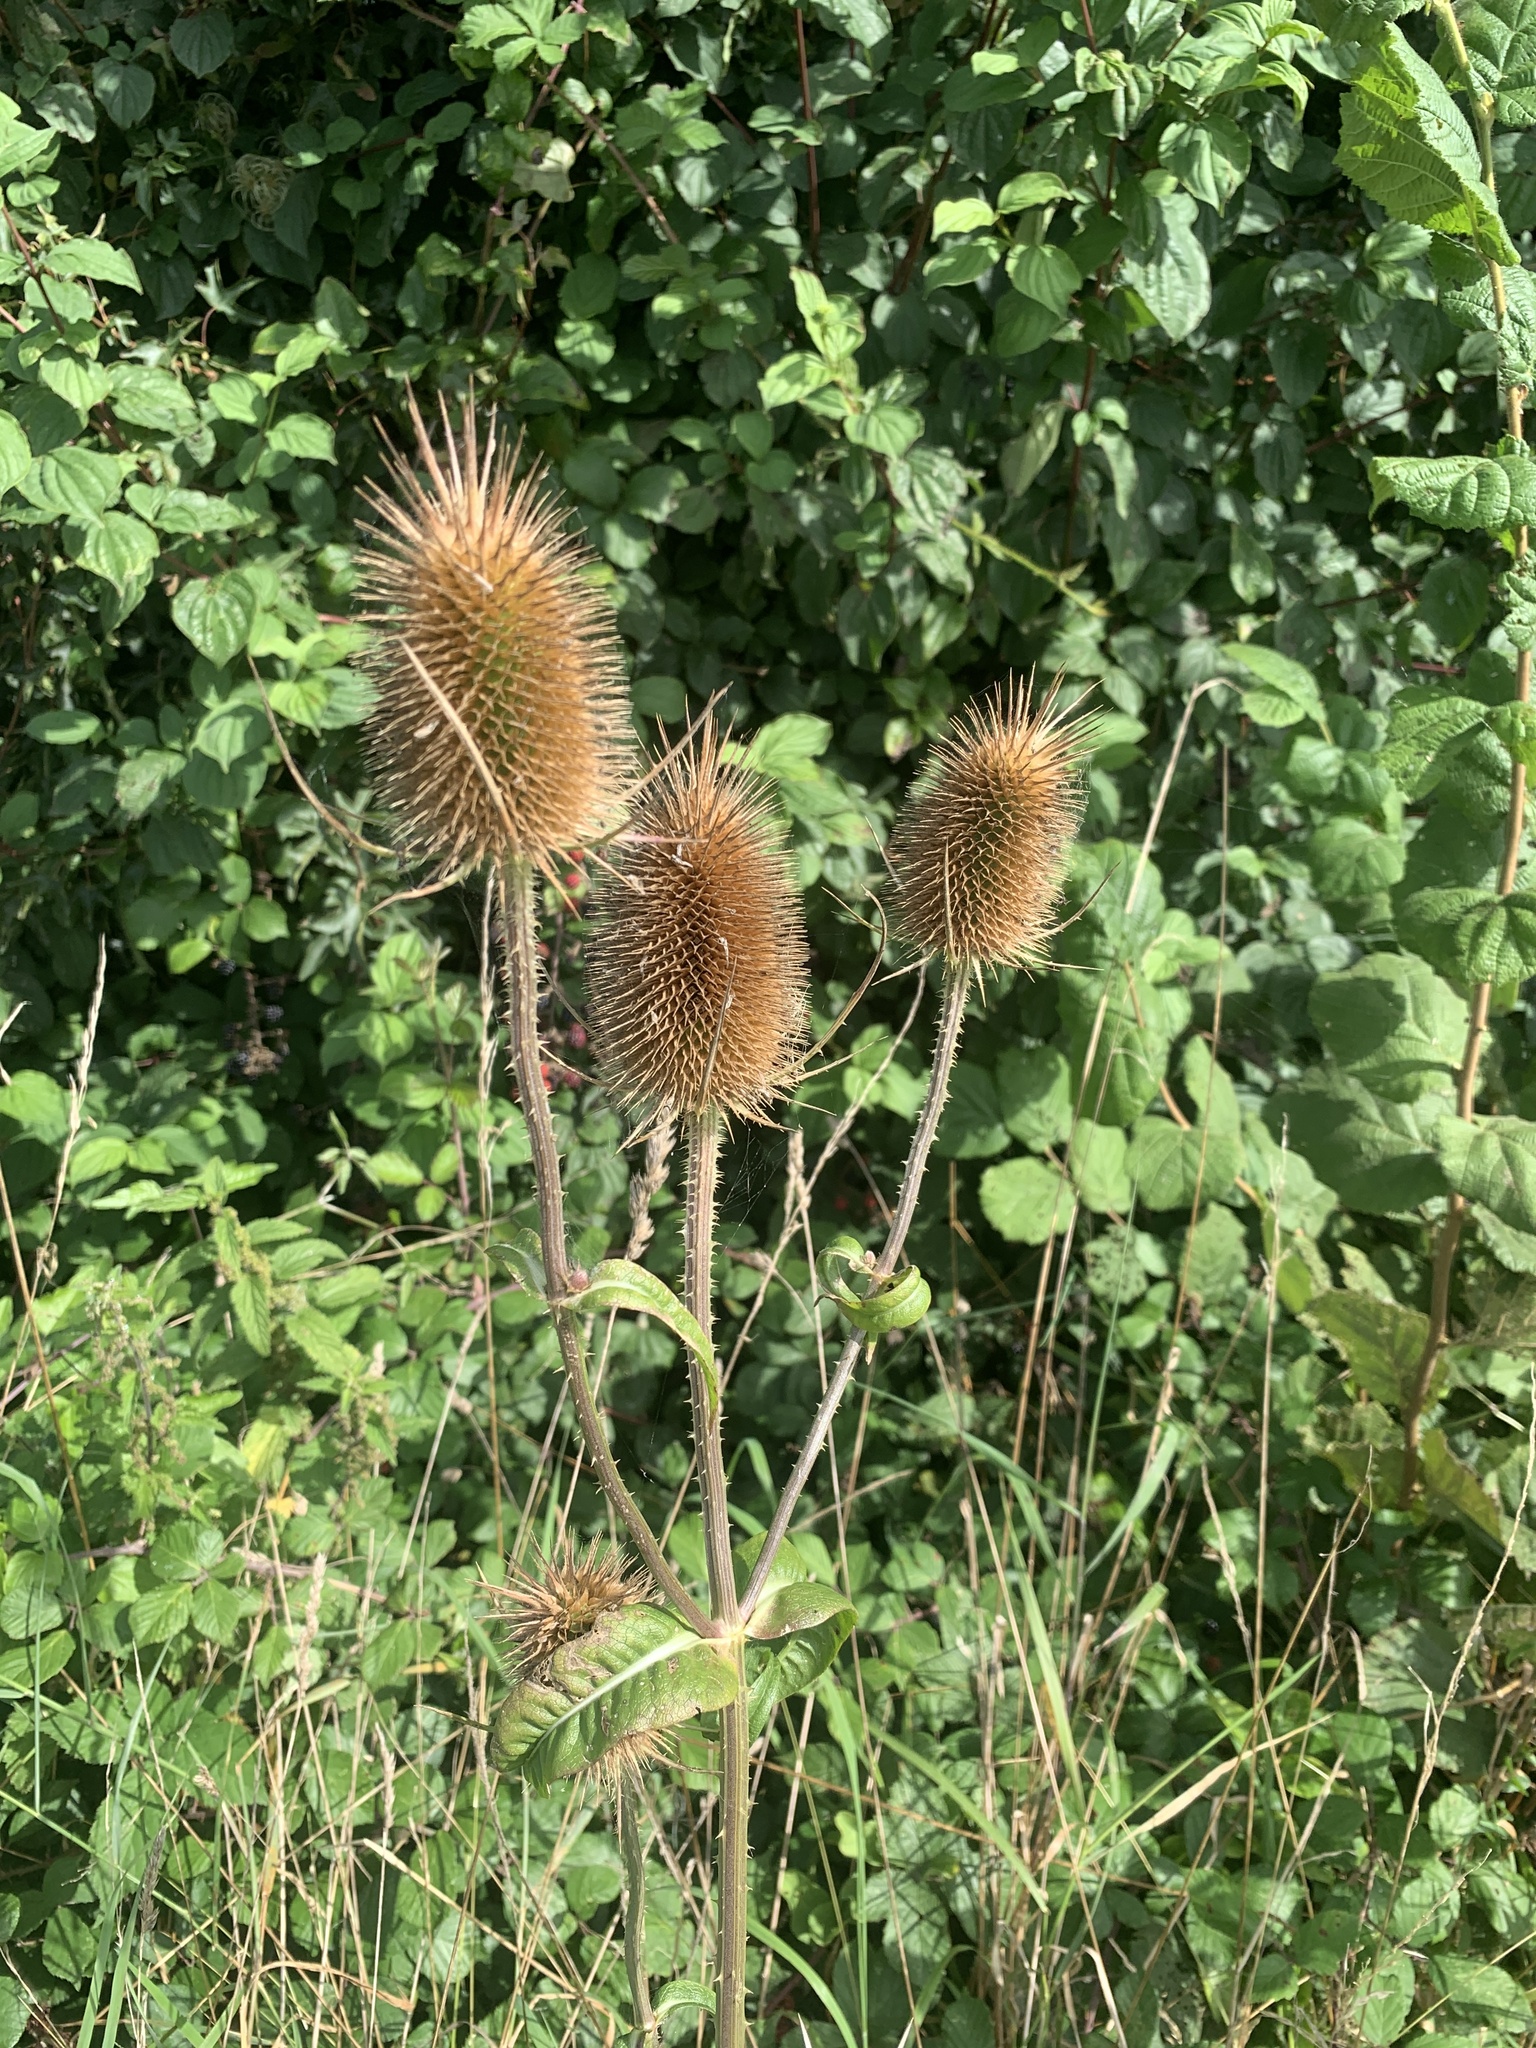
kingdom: Plantae
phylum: Tracheophyta
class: Magnoliopsida
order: Dipsacales
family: Caprifoliaceae
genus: Dipsacus
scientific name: Dipsacus fullonum
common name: Teasel
